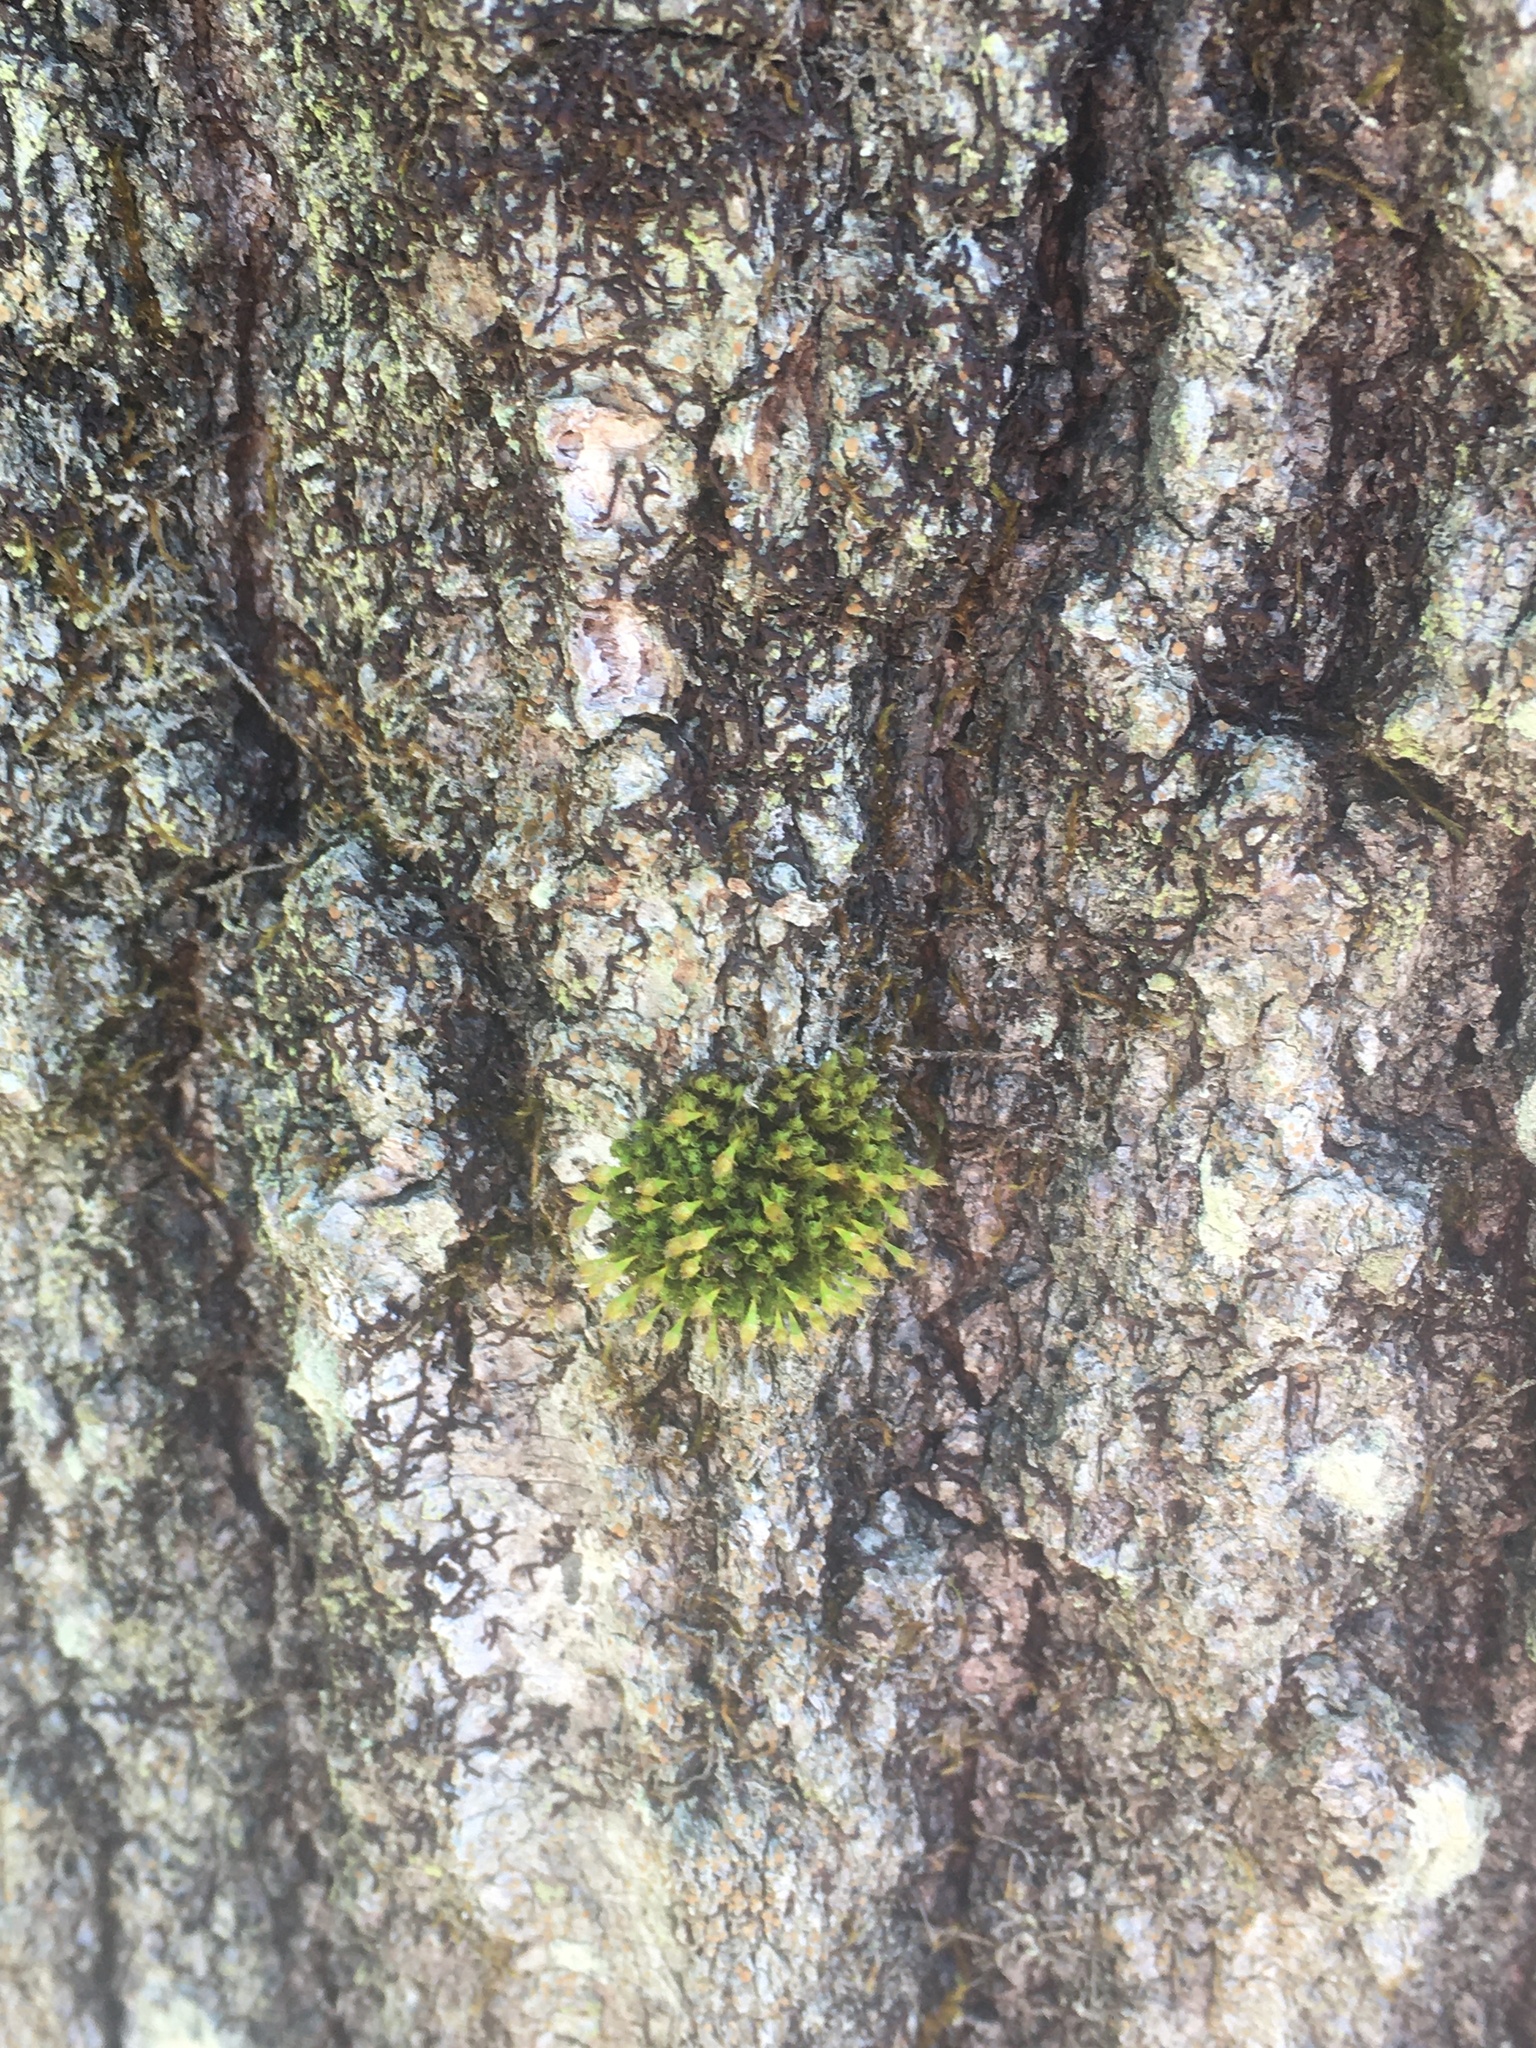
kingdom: Plantae
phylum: Bryophyta
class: Bryopsida
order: Orthotrichales
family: Orthotrichaceae
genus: Ulota
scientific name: Ulota crispa
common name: Crisped pincushion moss
